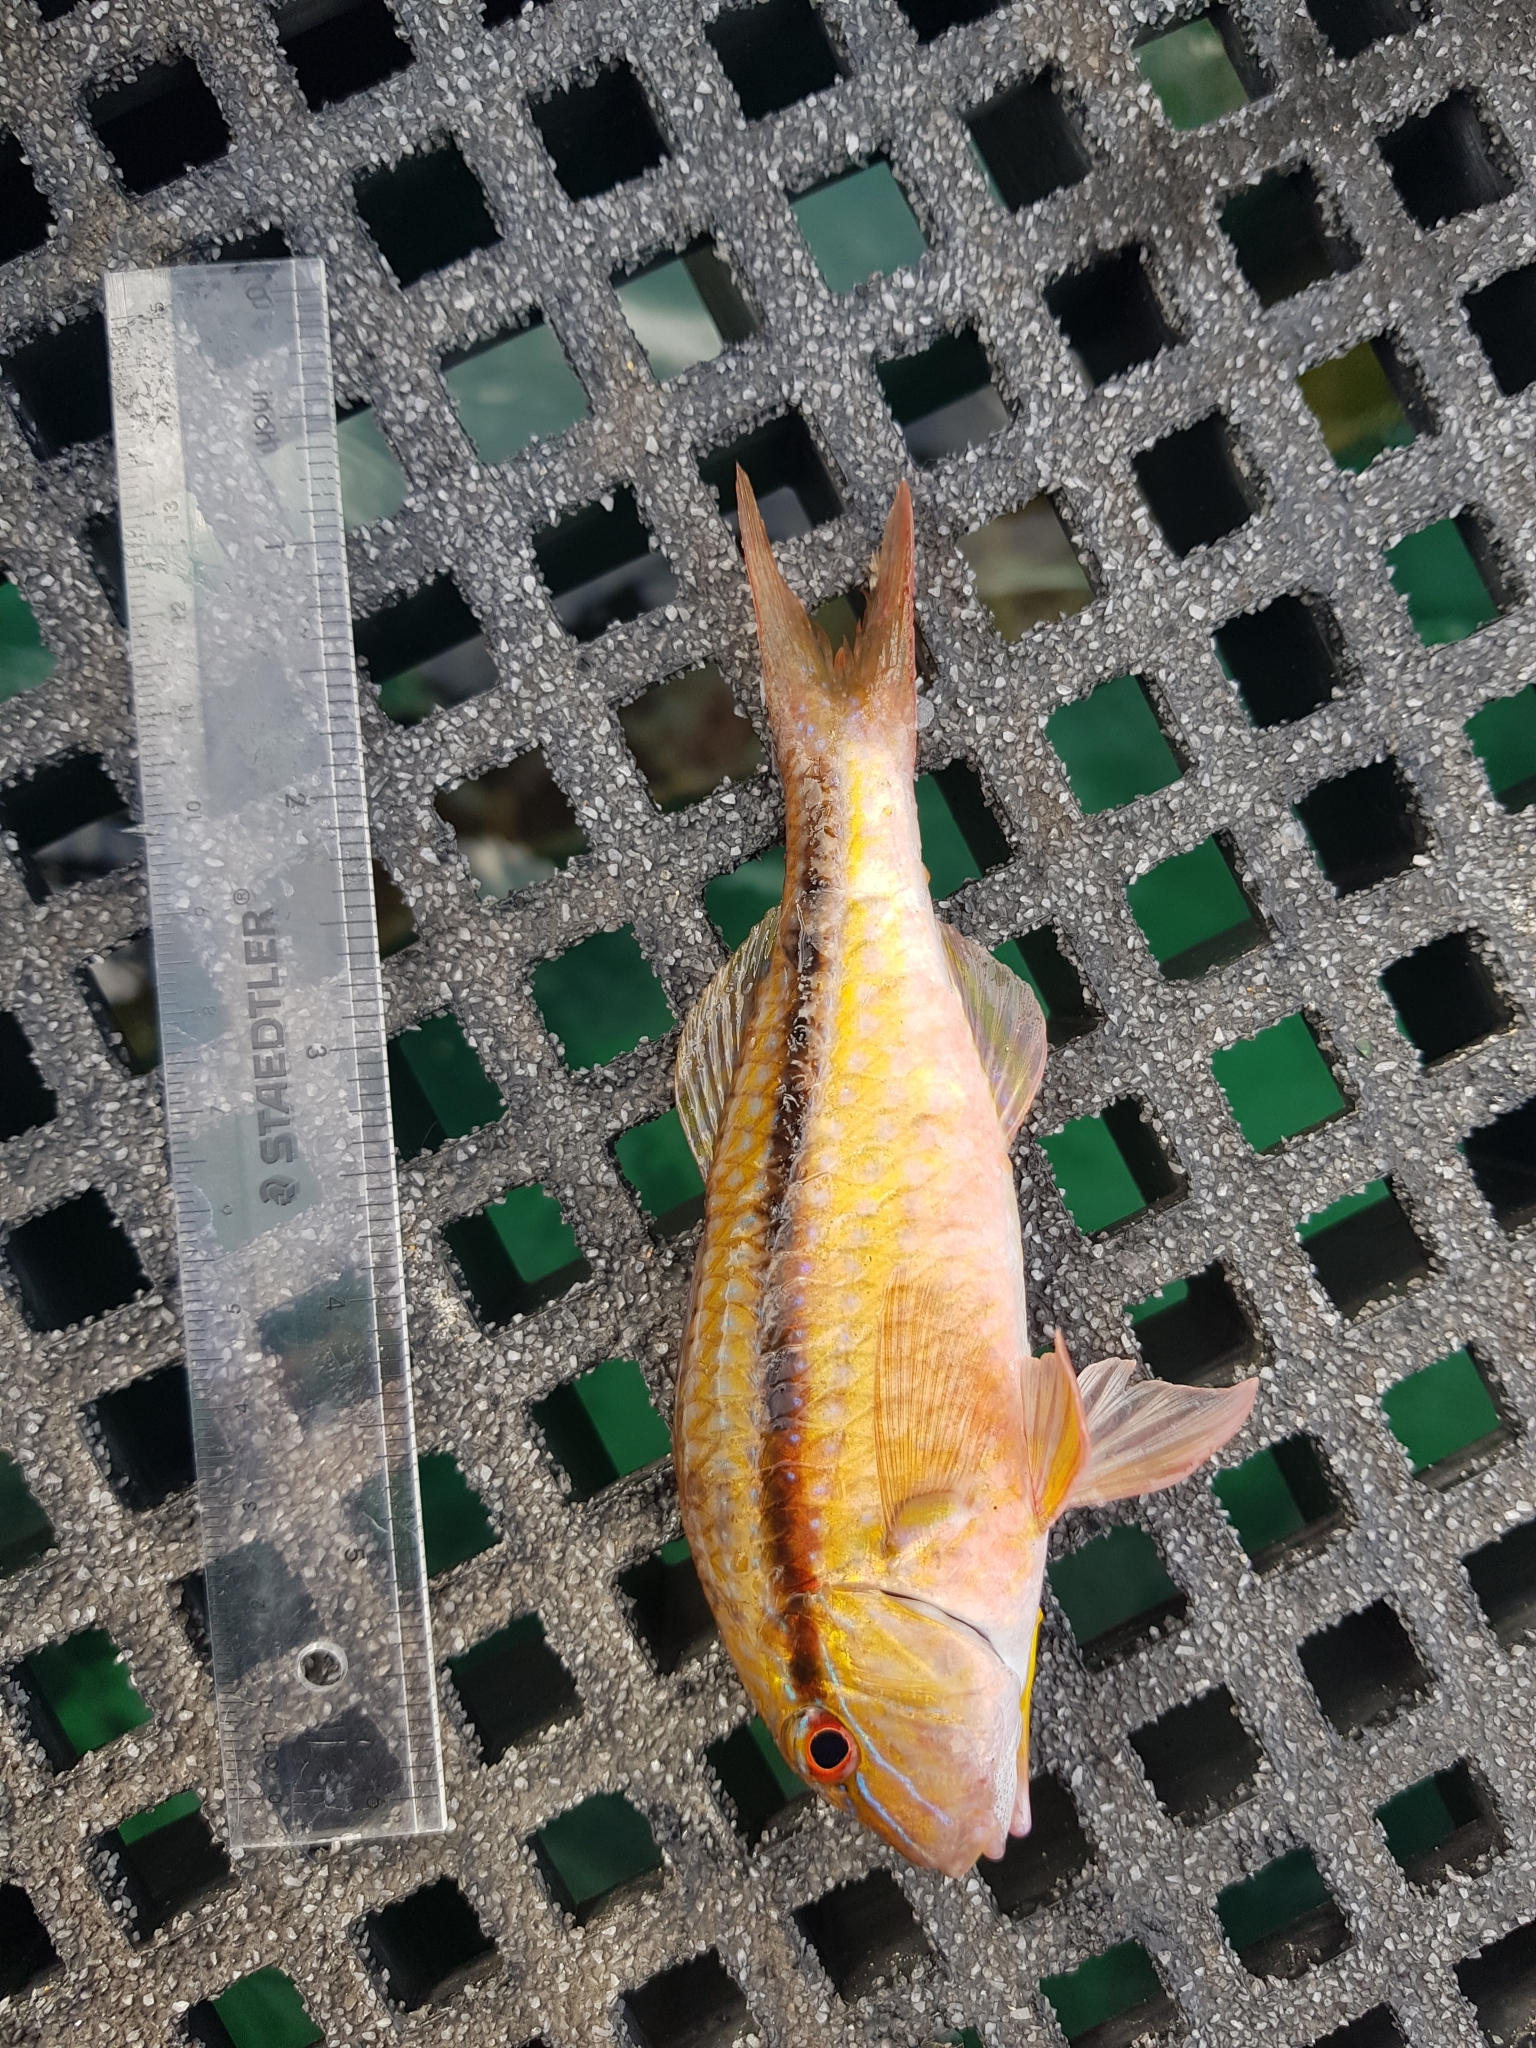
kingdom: Animalia
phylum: Chordata
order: Perciformes
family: Mullidae
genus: Upeneichthys
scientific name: Upeneichthys vlamingii
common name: Red mullet
